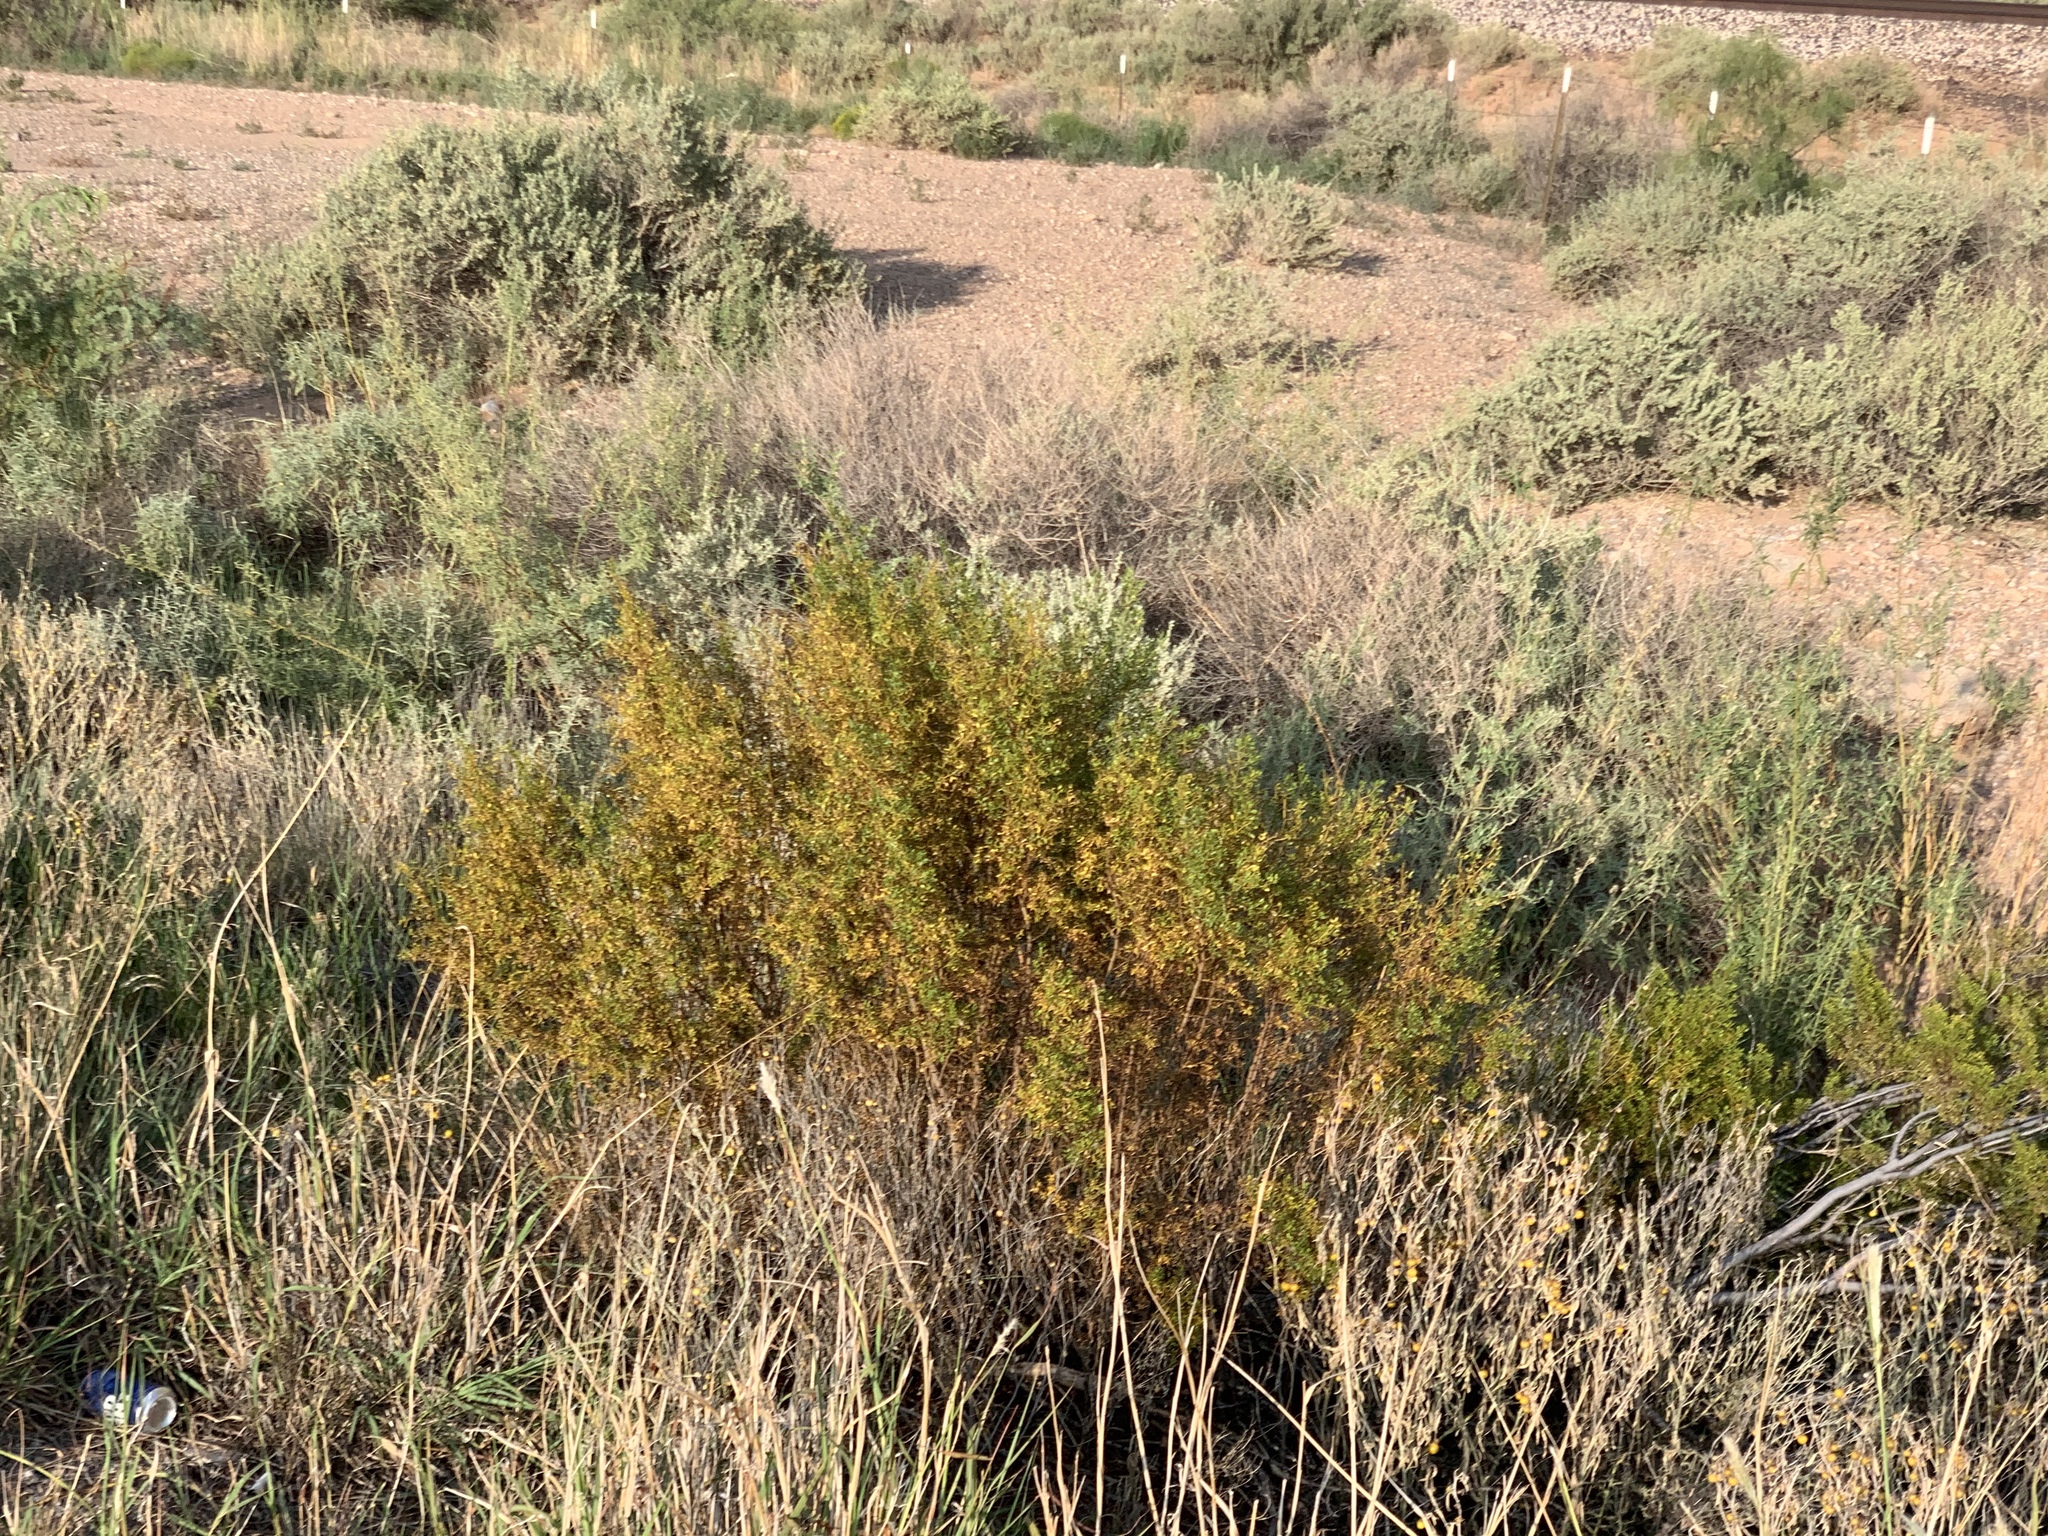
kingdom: Plantae
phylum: Tracheophyta
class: Magnoliopsida
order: Zygophyllales
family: Zygophyllaceae
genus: Larrea
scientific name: Larrea tridentata
